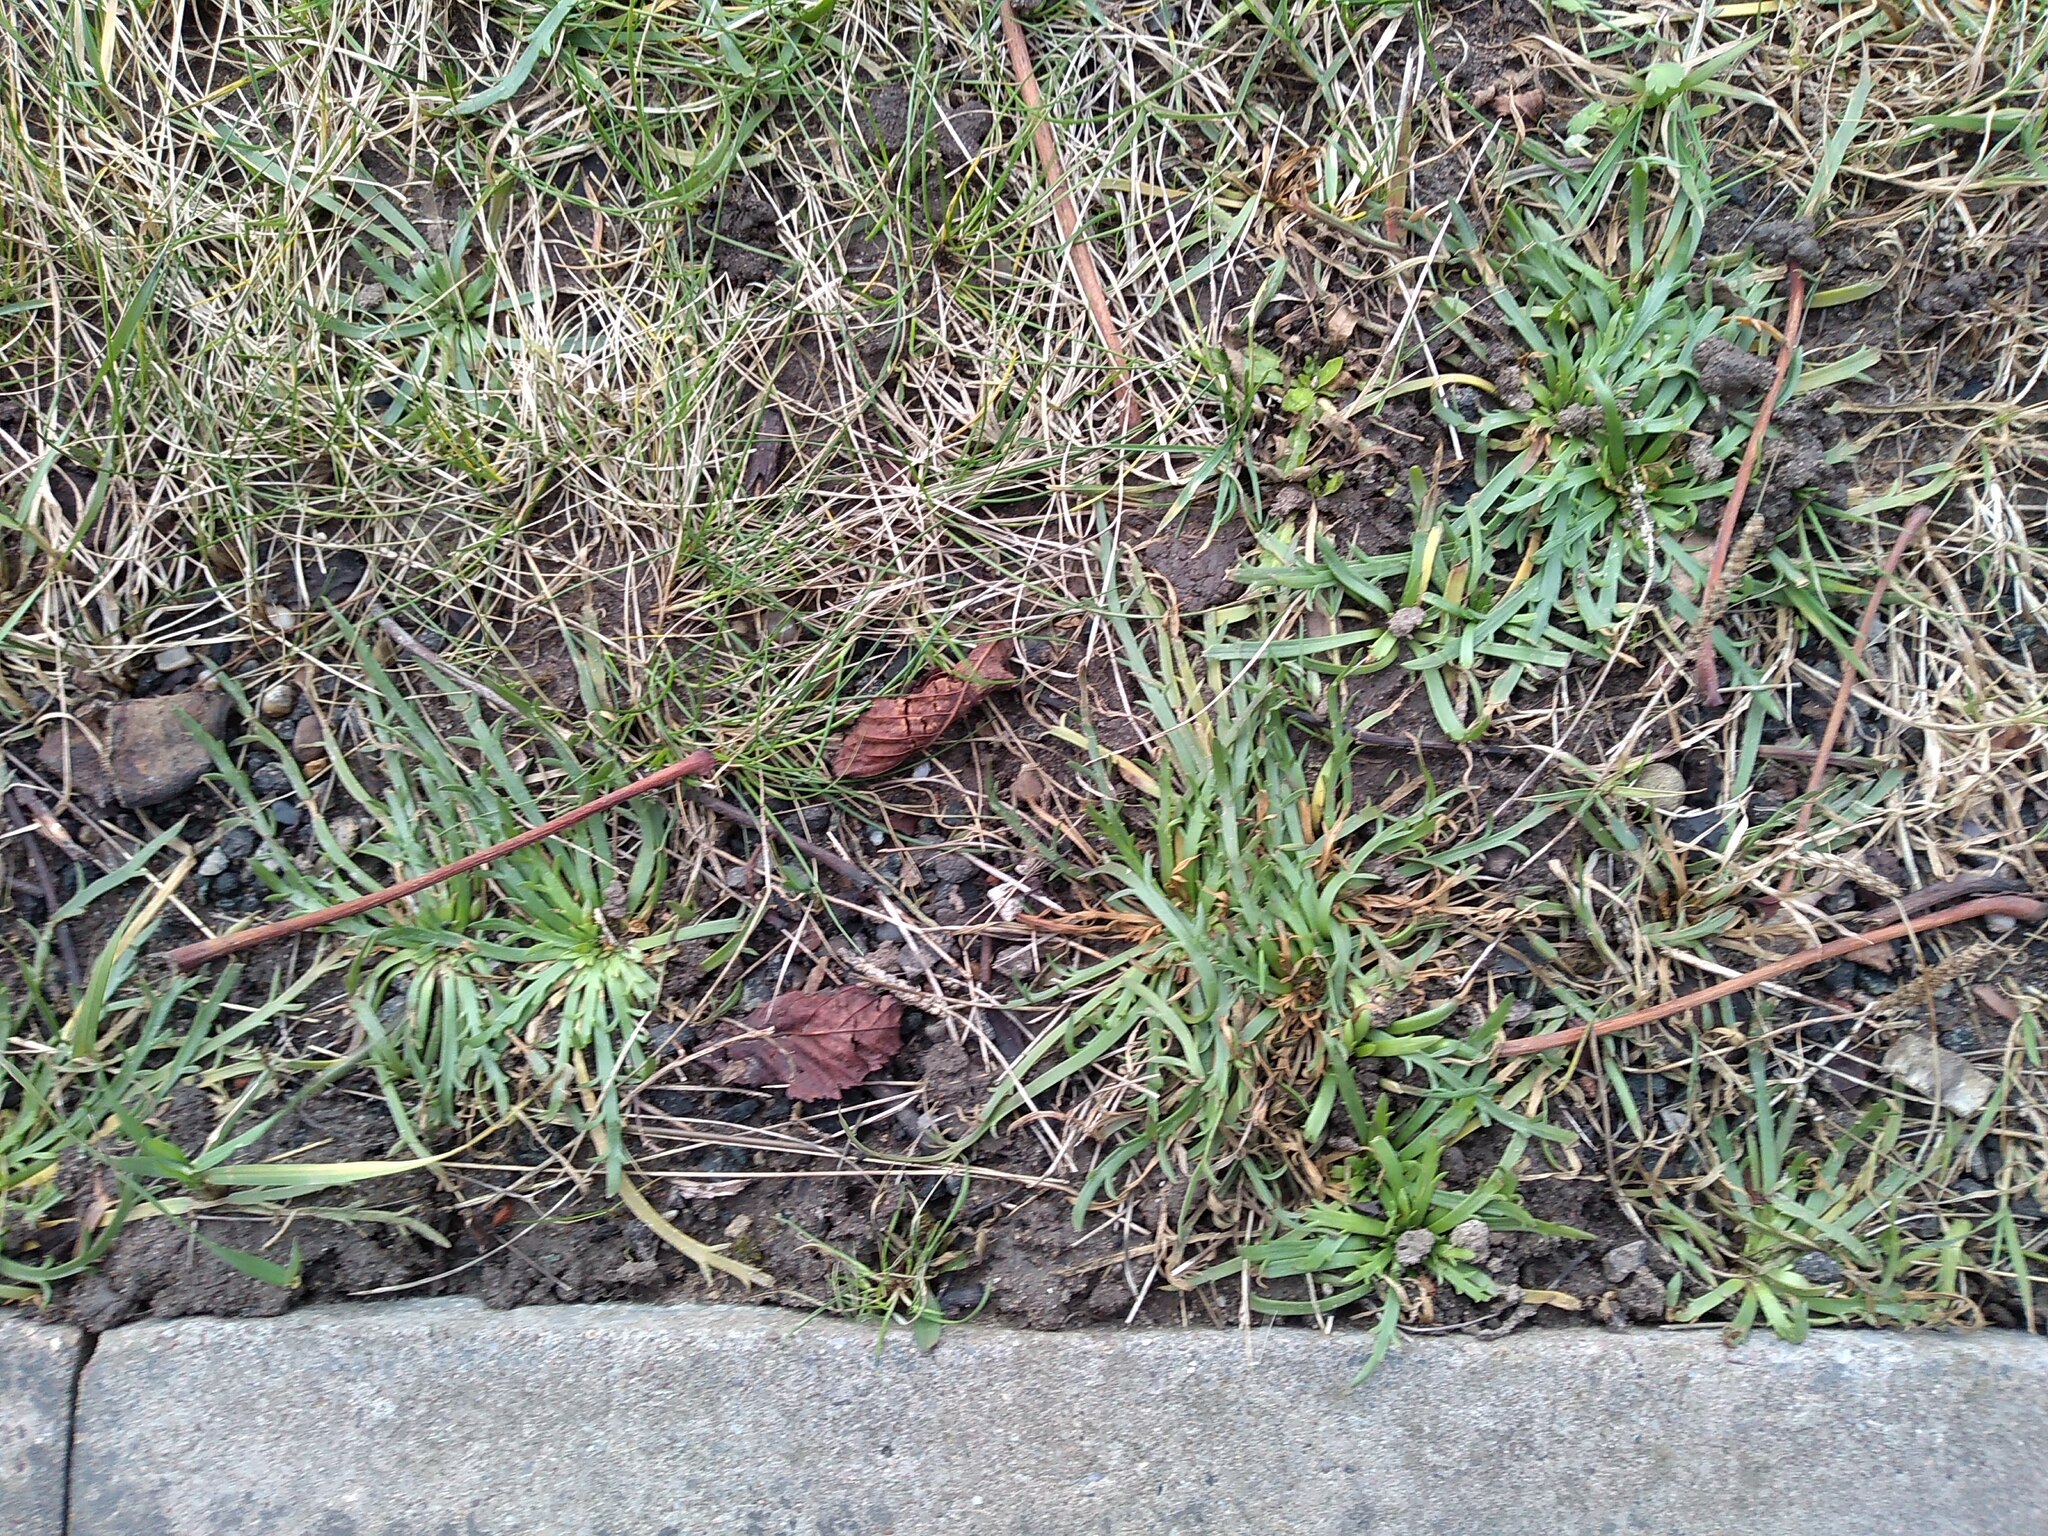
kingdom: Plantae
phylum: Tracheophyta
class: Magnoliopsida
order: Lamiales
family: Plantaginaceae
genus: Plantago
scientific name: Plantago coronopus
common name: Buck's-horn plantain
